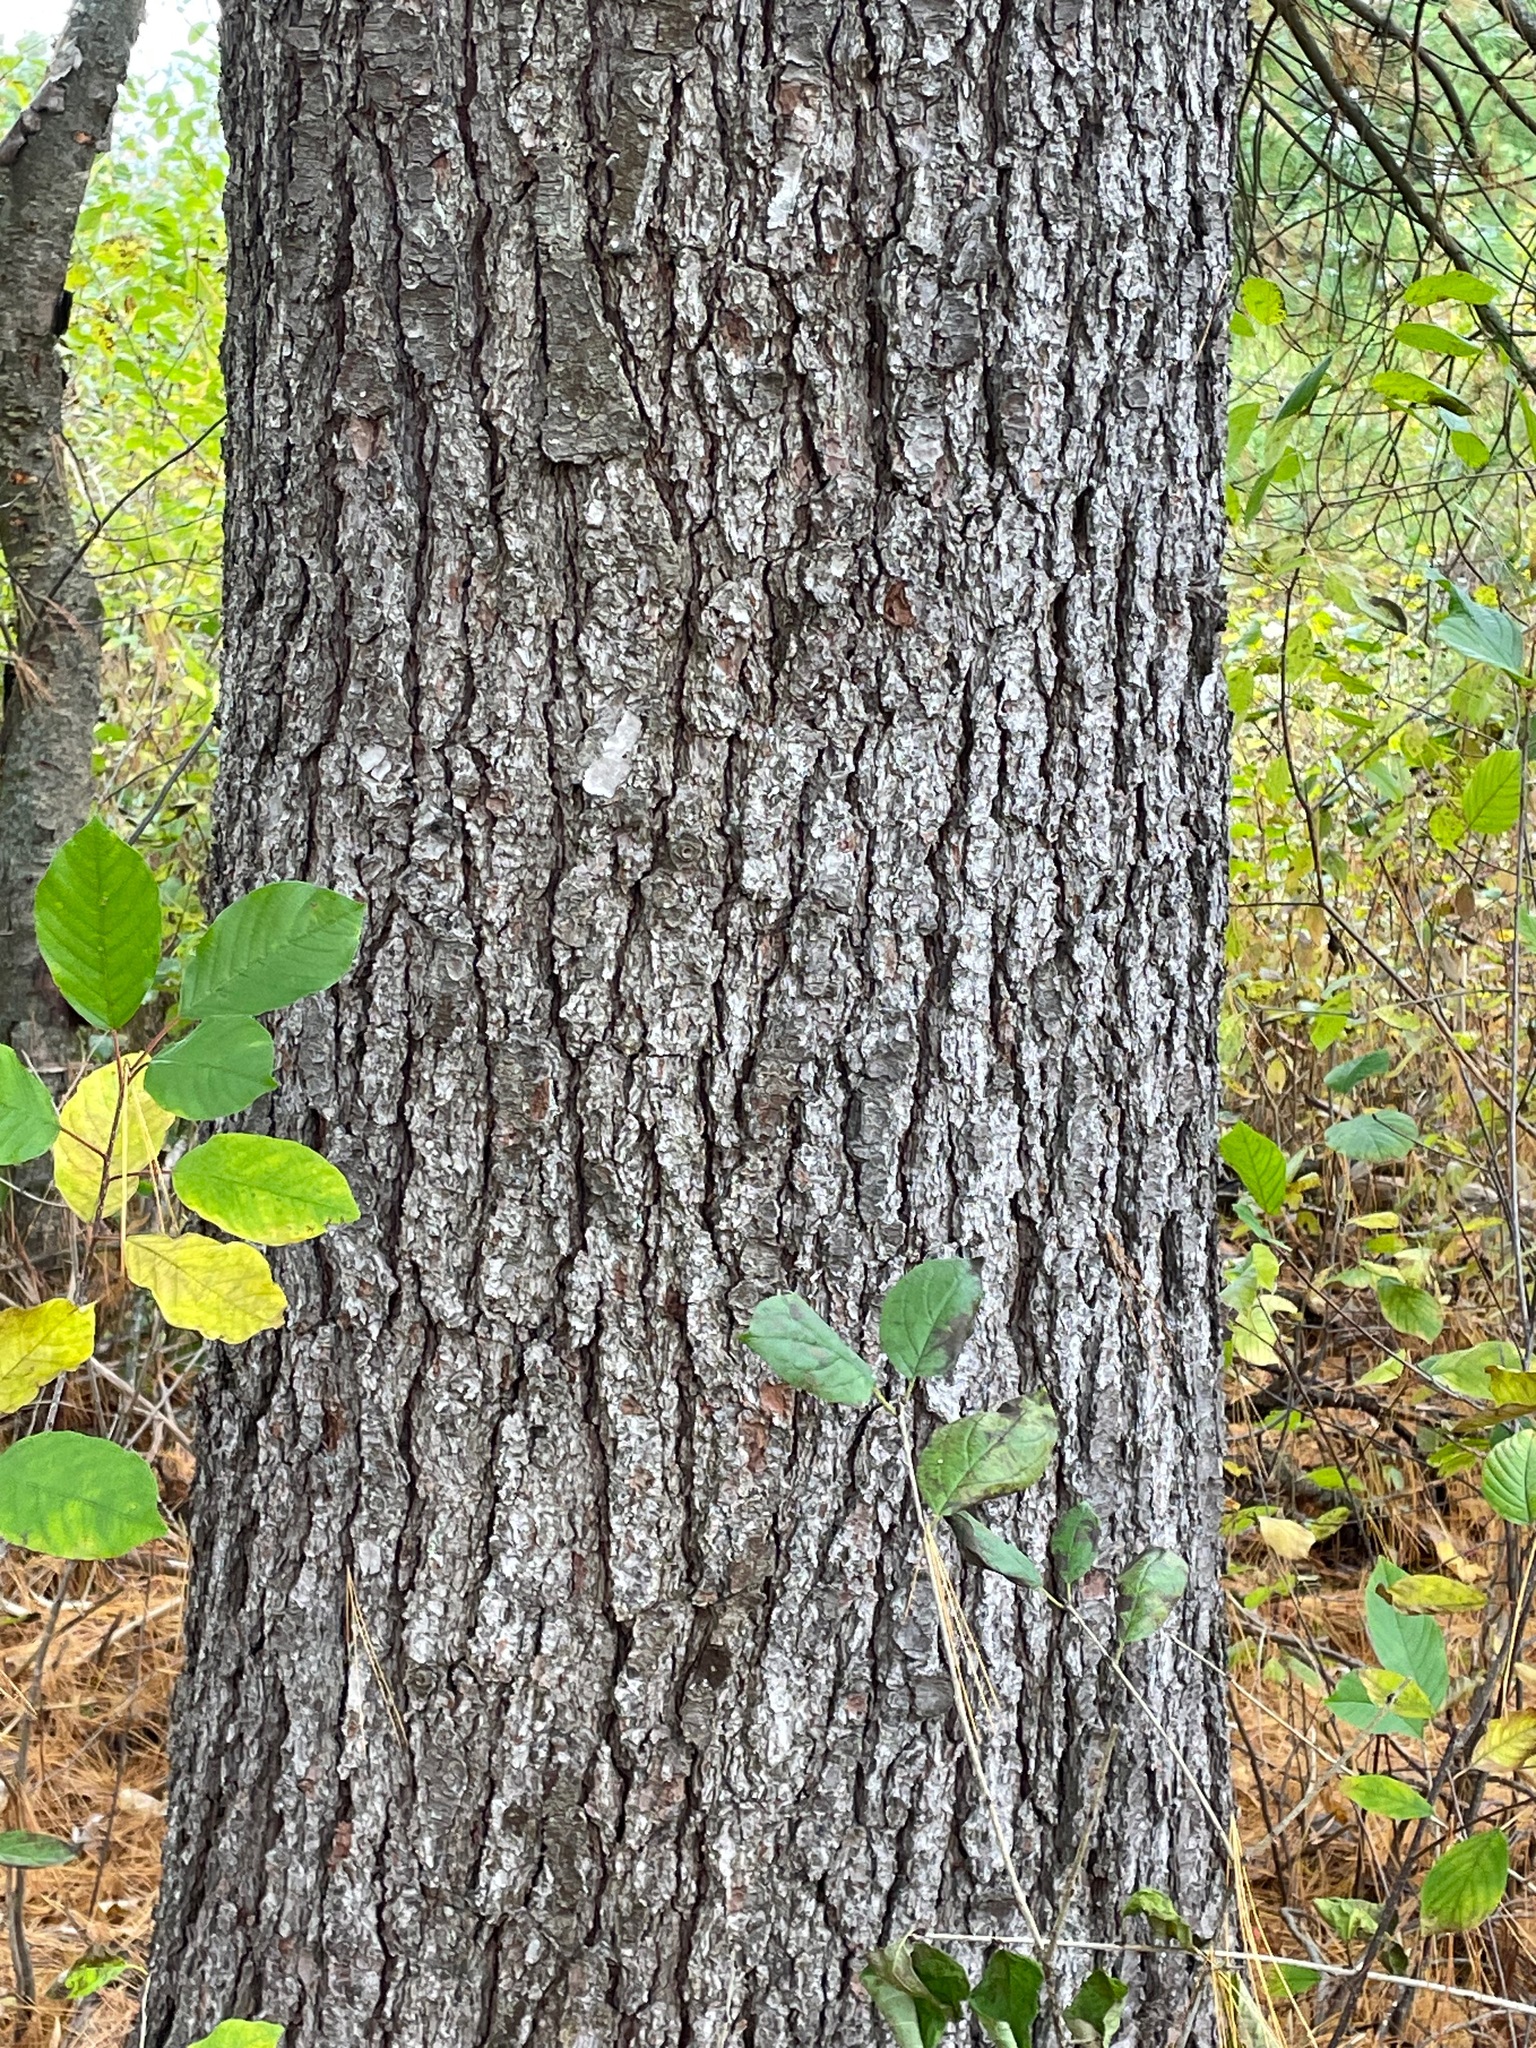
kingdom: Plantae
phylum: Tracheophyta
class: Pinopsida
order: Pinales
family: Pinaceae
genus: Pinus
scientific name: Pinus strobus
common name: Weymouth pine
